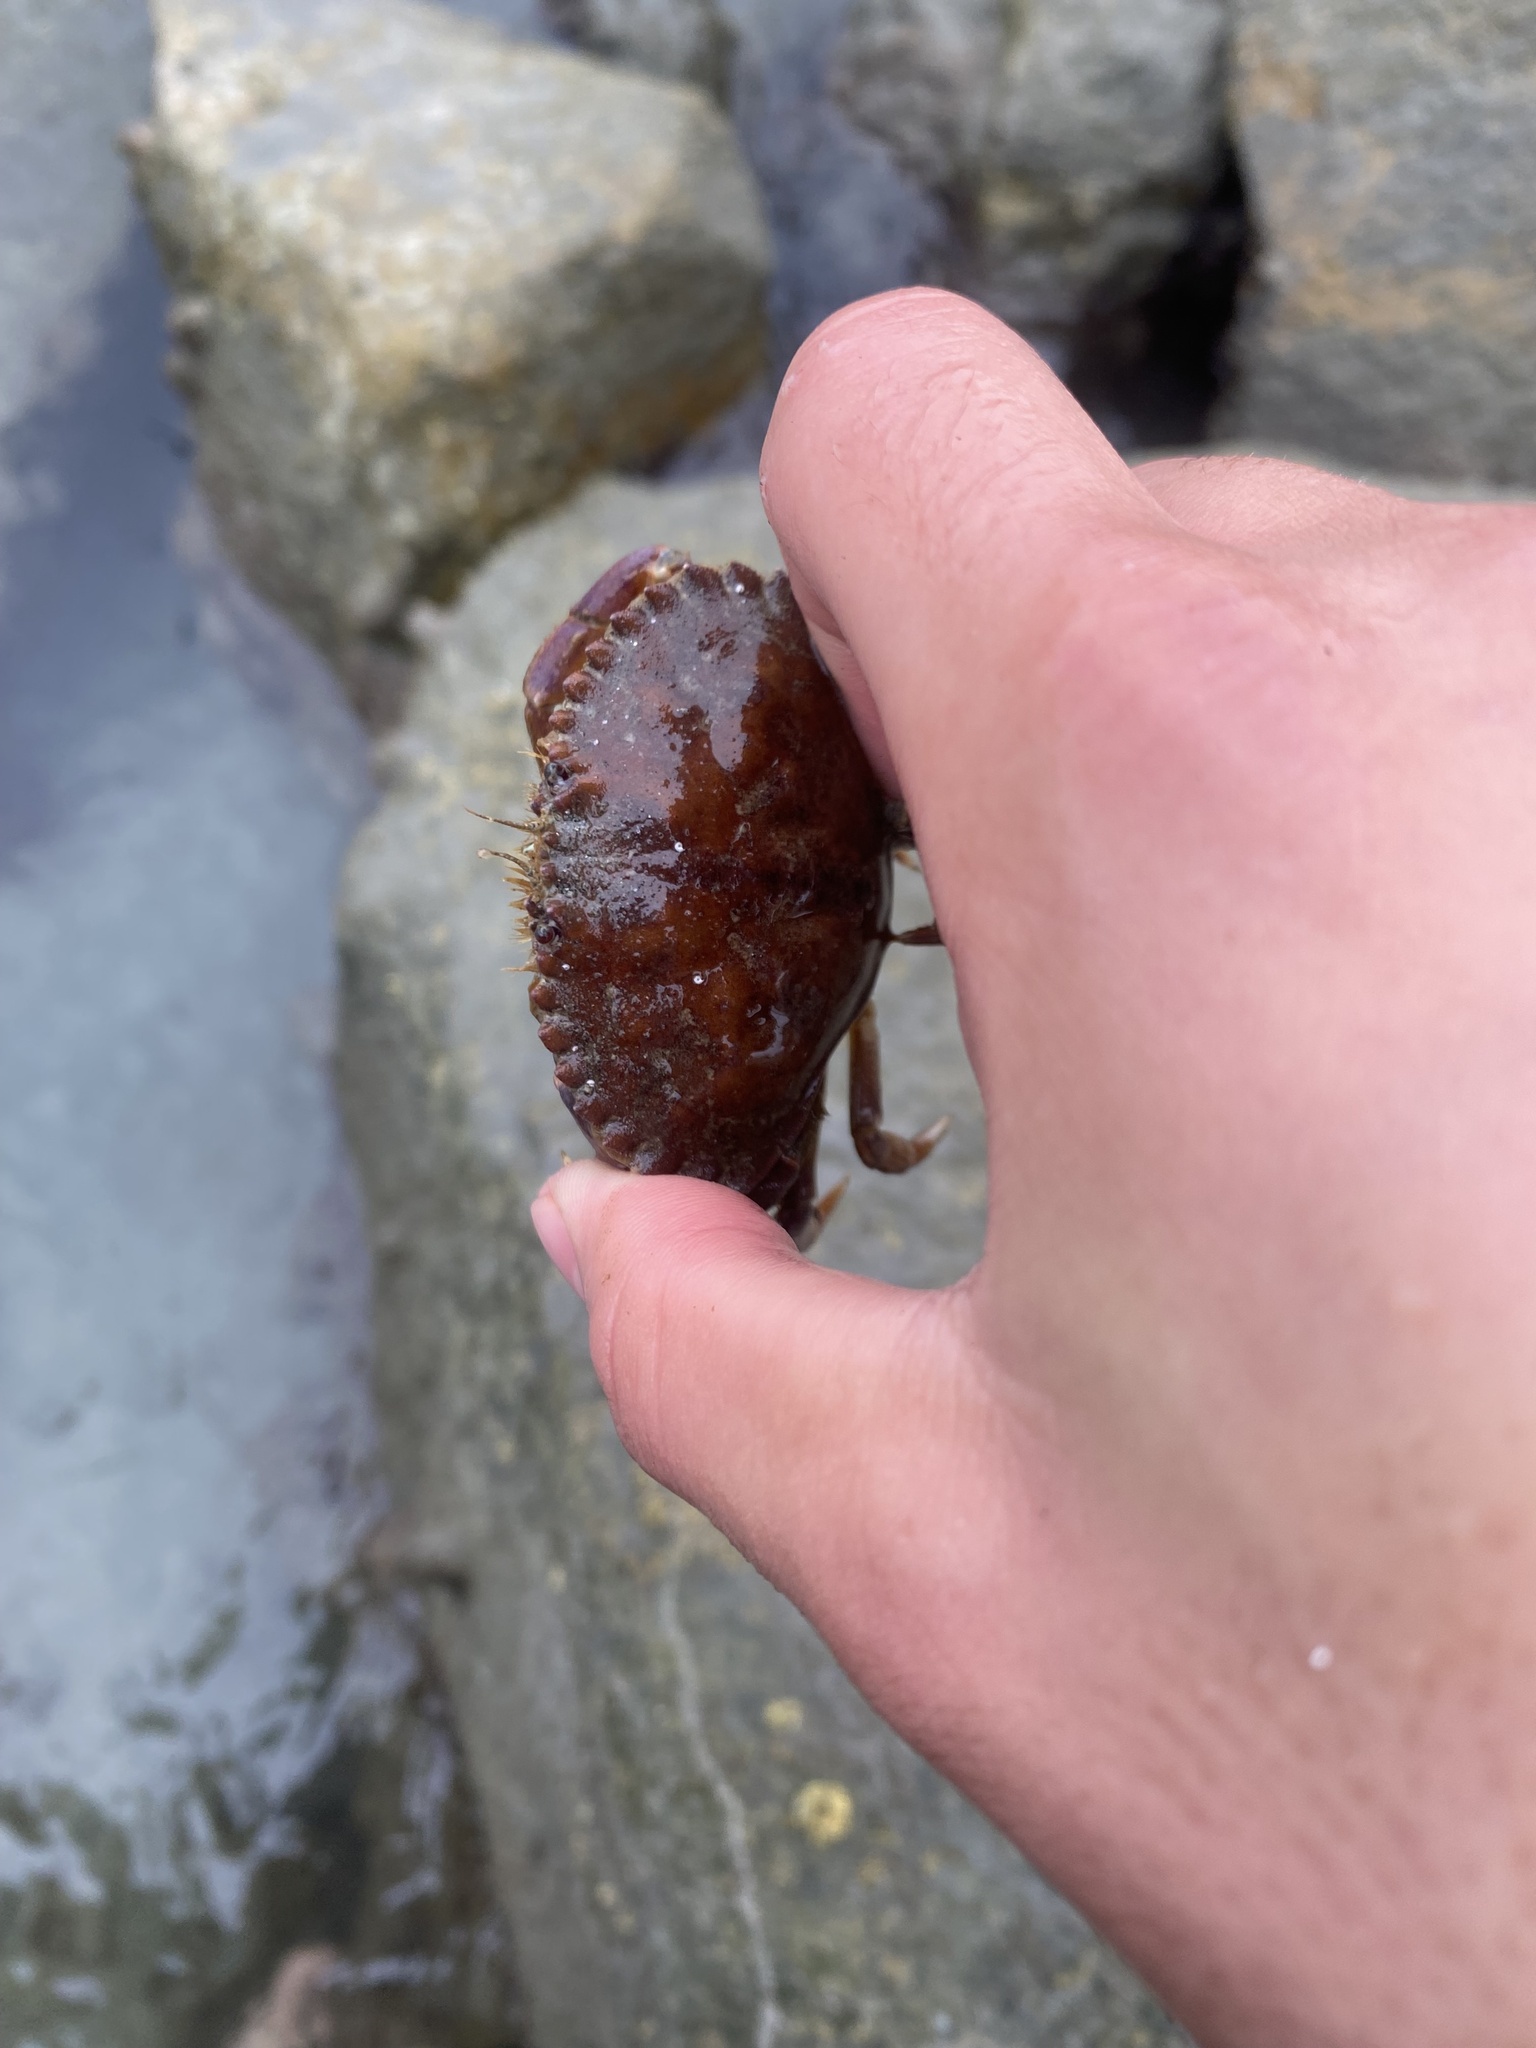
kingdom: Animalia
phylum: Arthropoda
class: Malacostraca
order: Decapoda
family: Cancridae
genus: Metacarcinus
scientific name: Metacarcinus anthonyi
